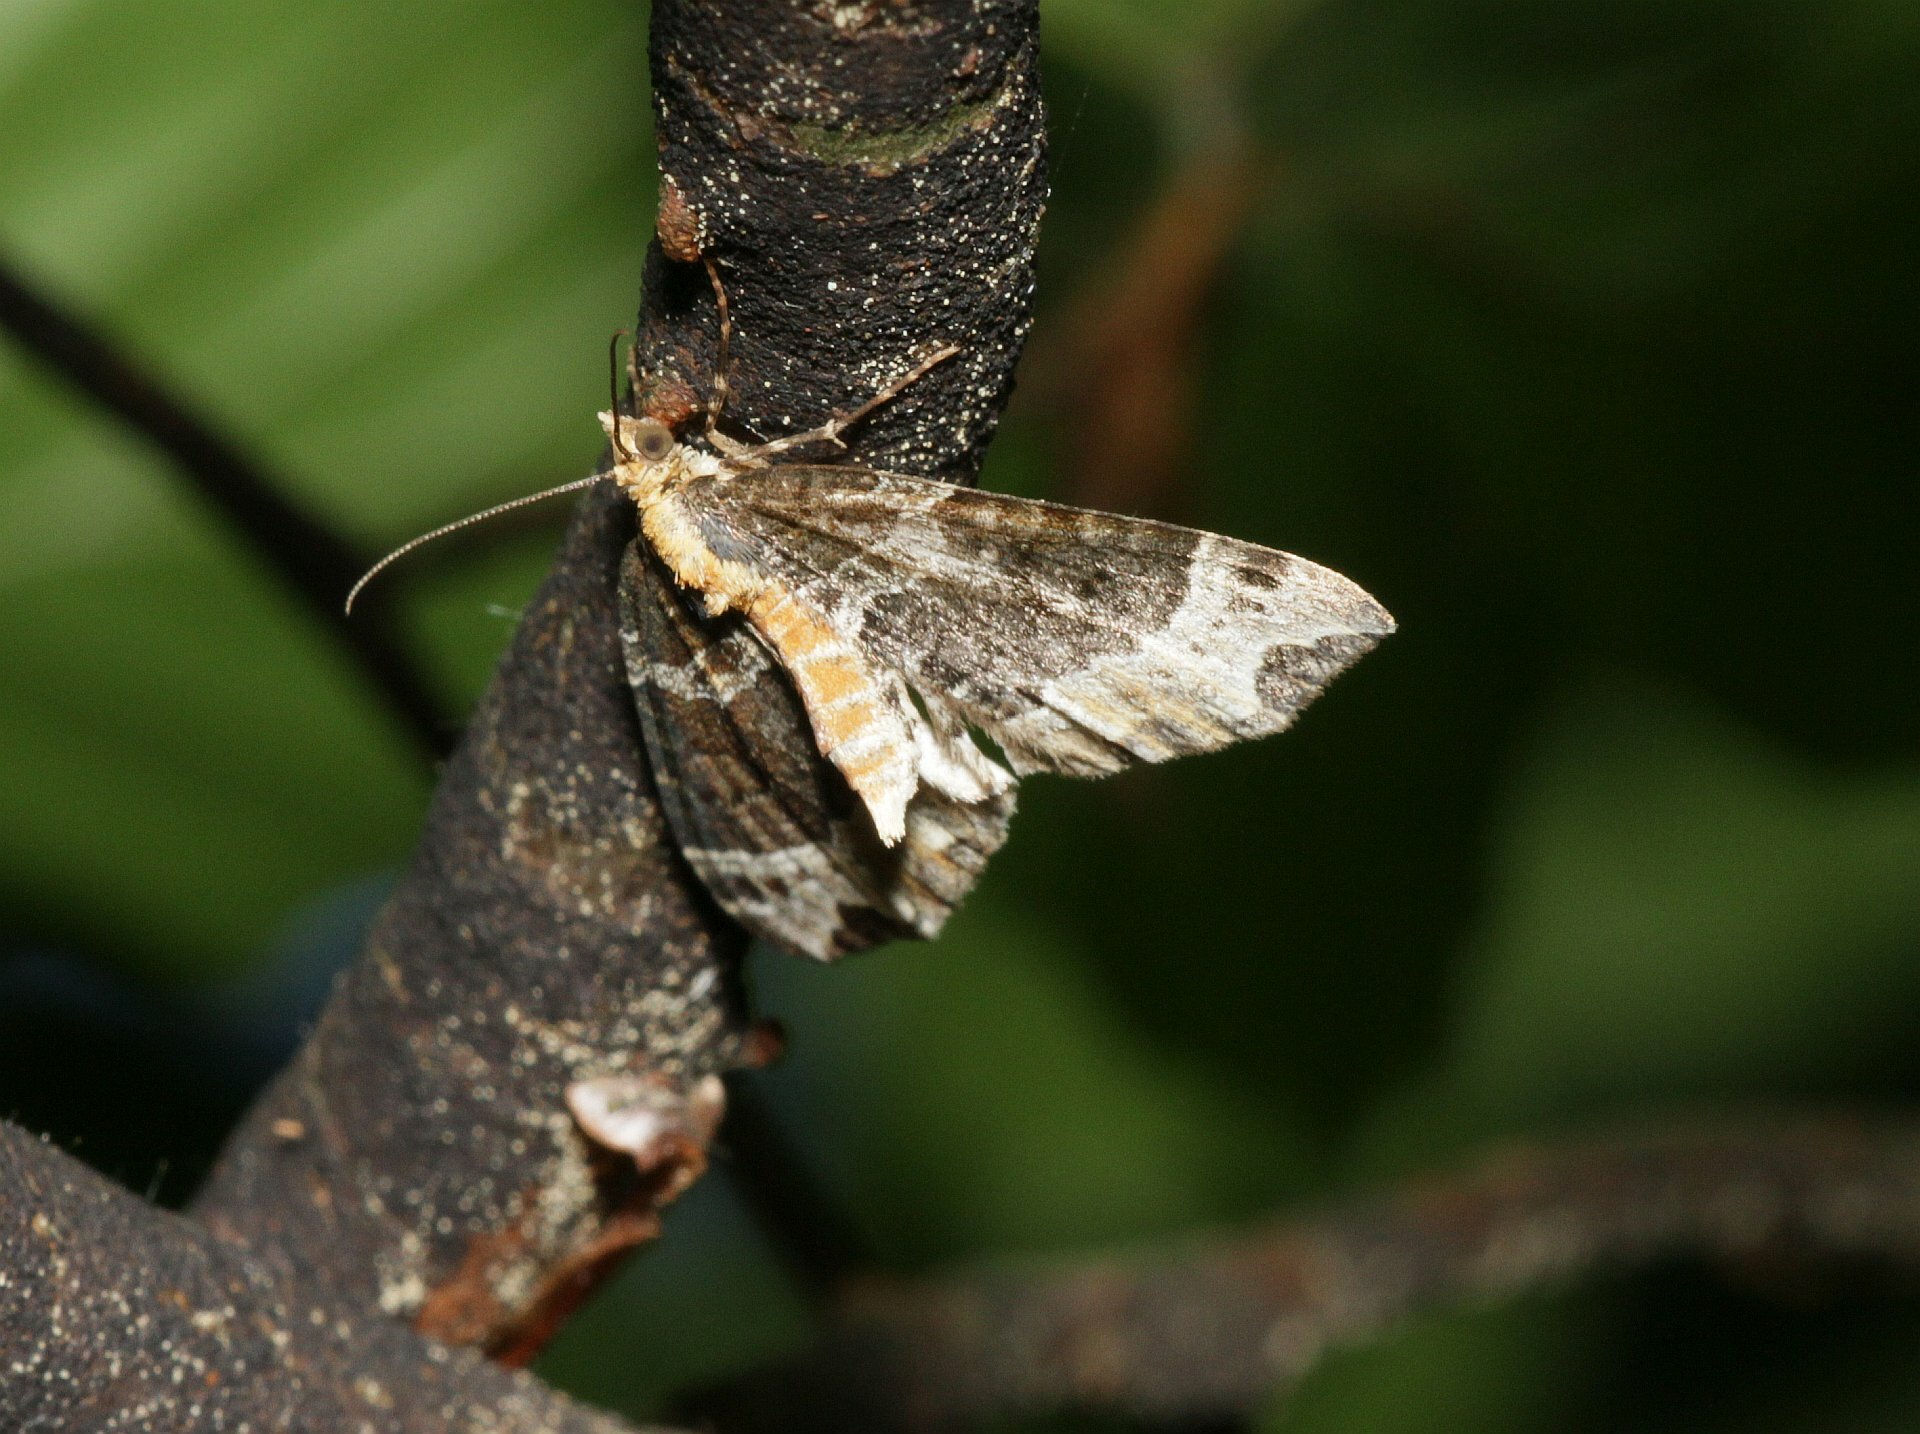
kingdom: Animalia
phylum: Arthropoda
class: Insecta
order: Lepidoptera
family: Geometridae
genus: Ecliptopera
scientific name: Ecliptopera silaceata
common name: Small phoenix
